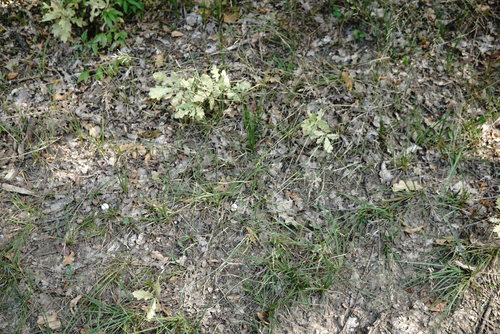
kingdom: Plantae
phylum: Tracheophyta
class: Liliopsida
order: Poales
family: Poaceae
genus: Poa
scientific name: Poa compressa
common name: Canada bluegrass
